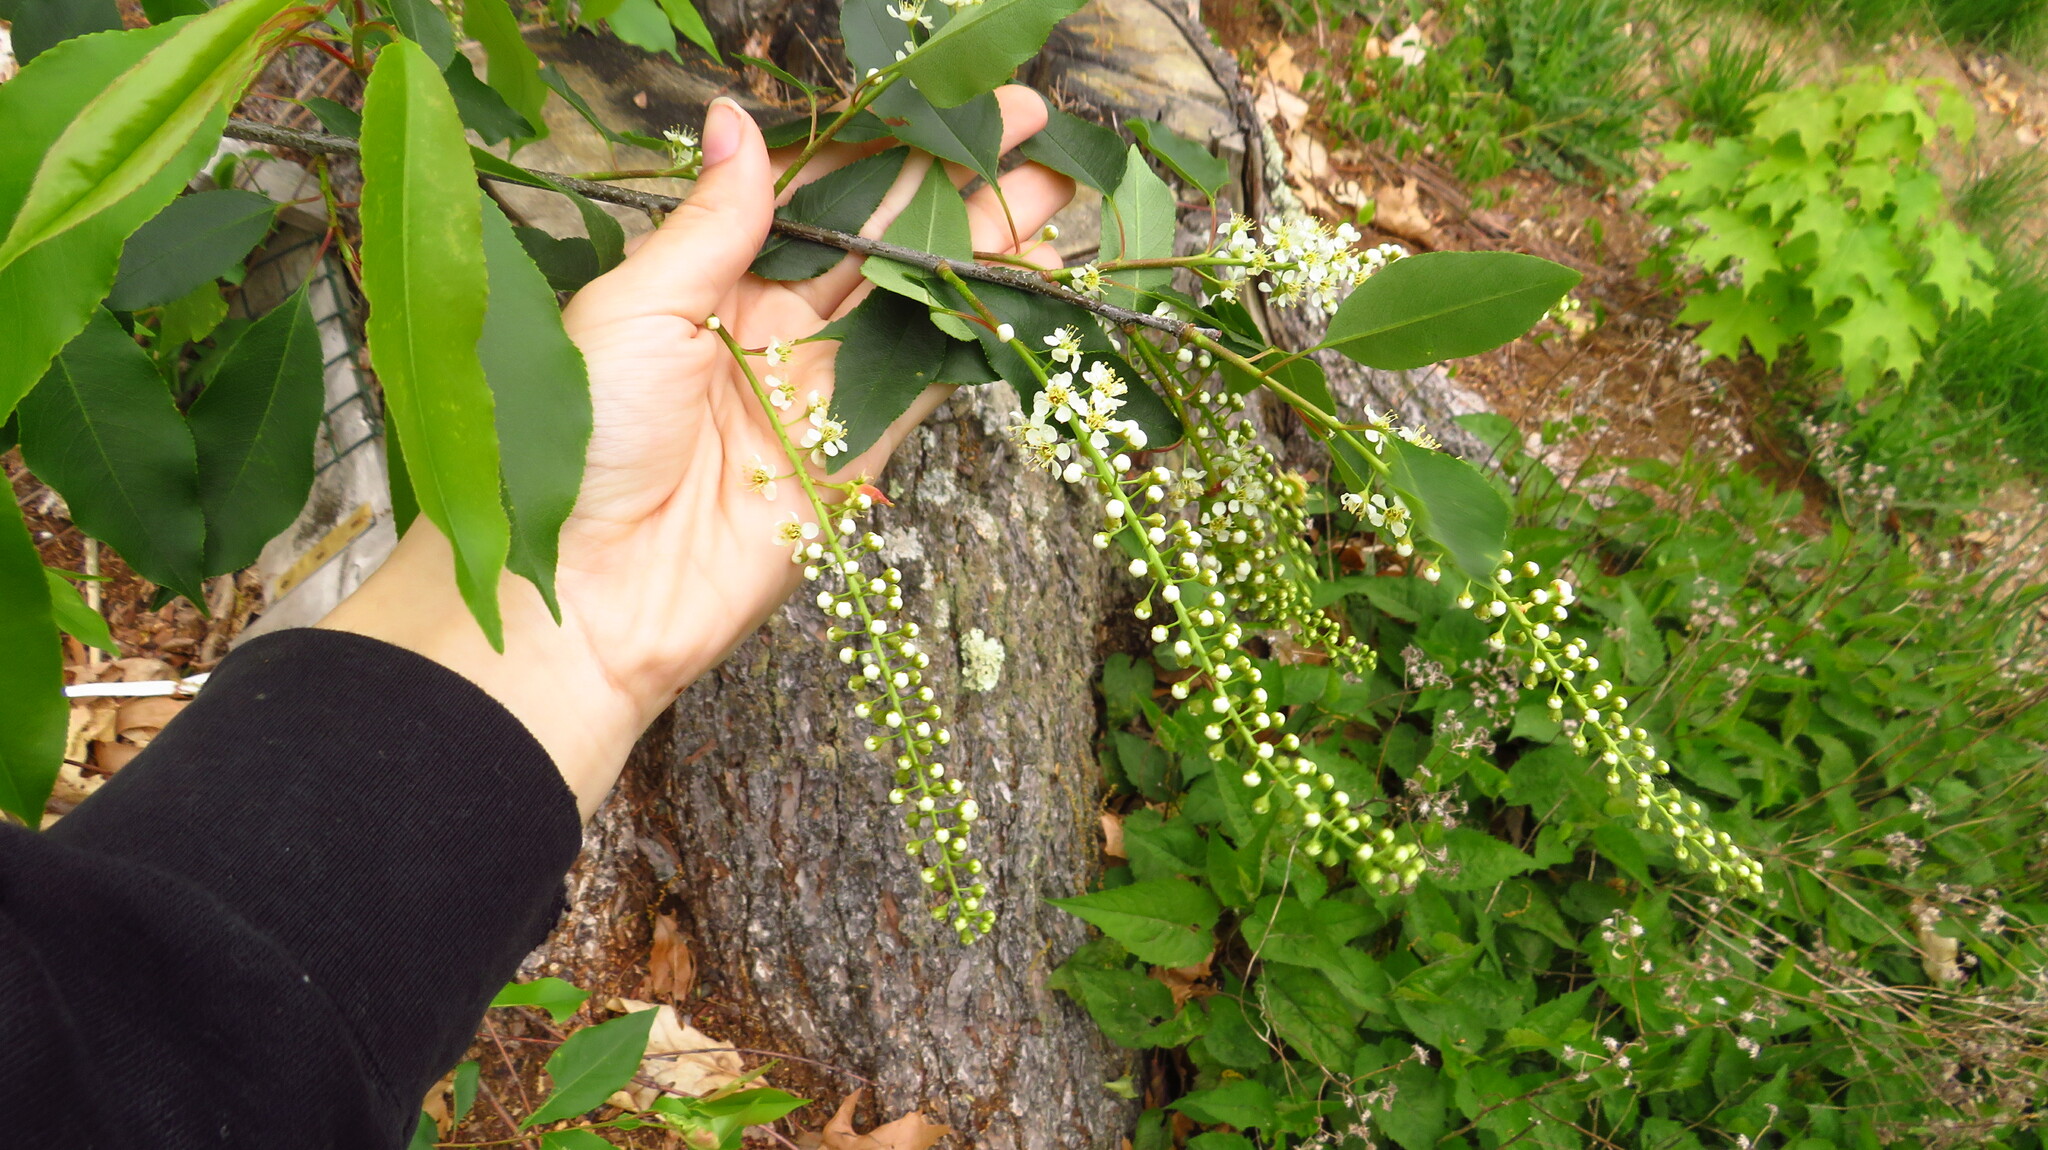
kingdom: Plantae
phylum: Tracheophyta
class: Magnoliopsida
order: Rosales
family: Rosaceae
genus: Prunus
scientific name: Prunus serotina
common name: Black cherry
